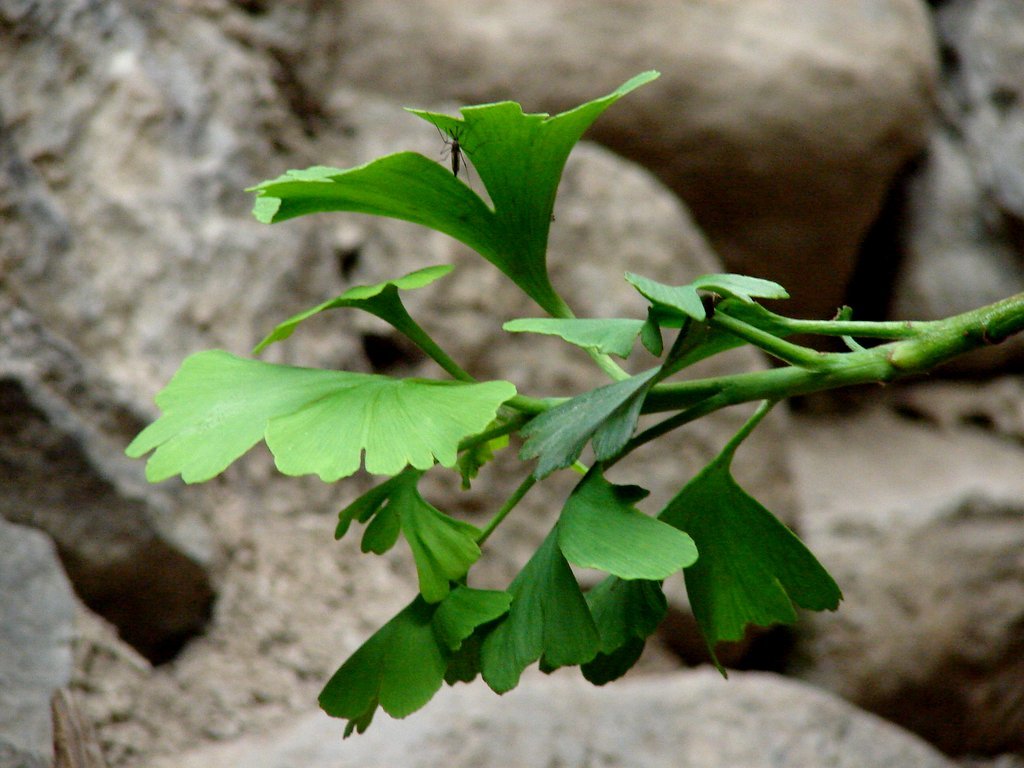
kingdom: Plantae
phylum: Tracheophyta
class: Ginkgoopsida
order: Ginkgoales
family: Ginkgoaceae
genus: Ginkgo
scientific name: Ginkgo biloba
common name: Ginkgo
